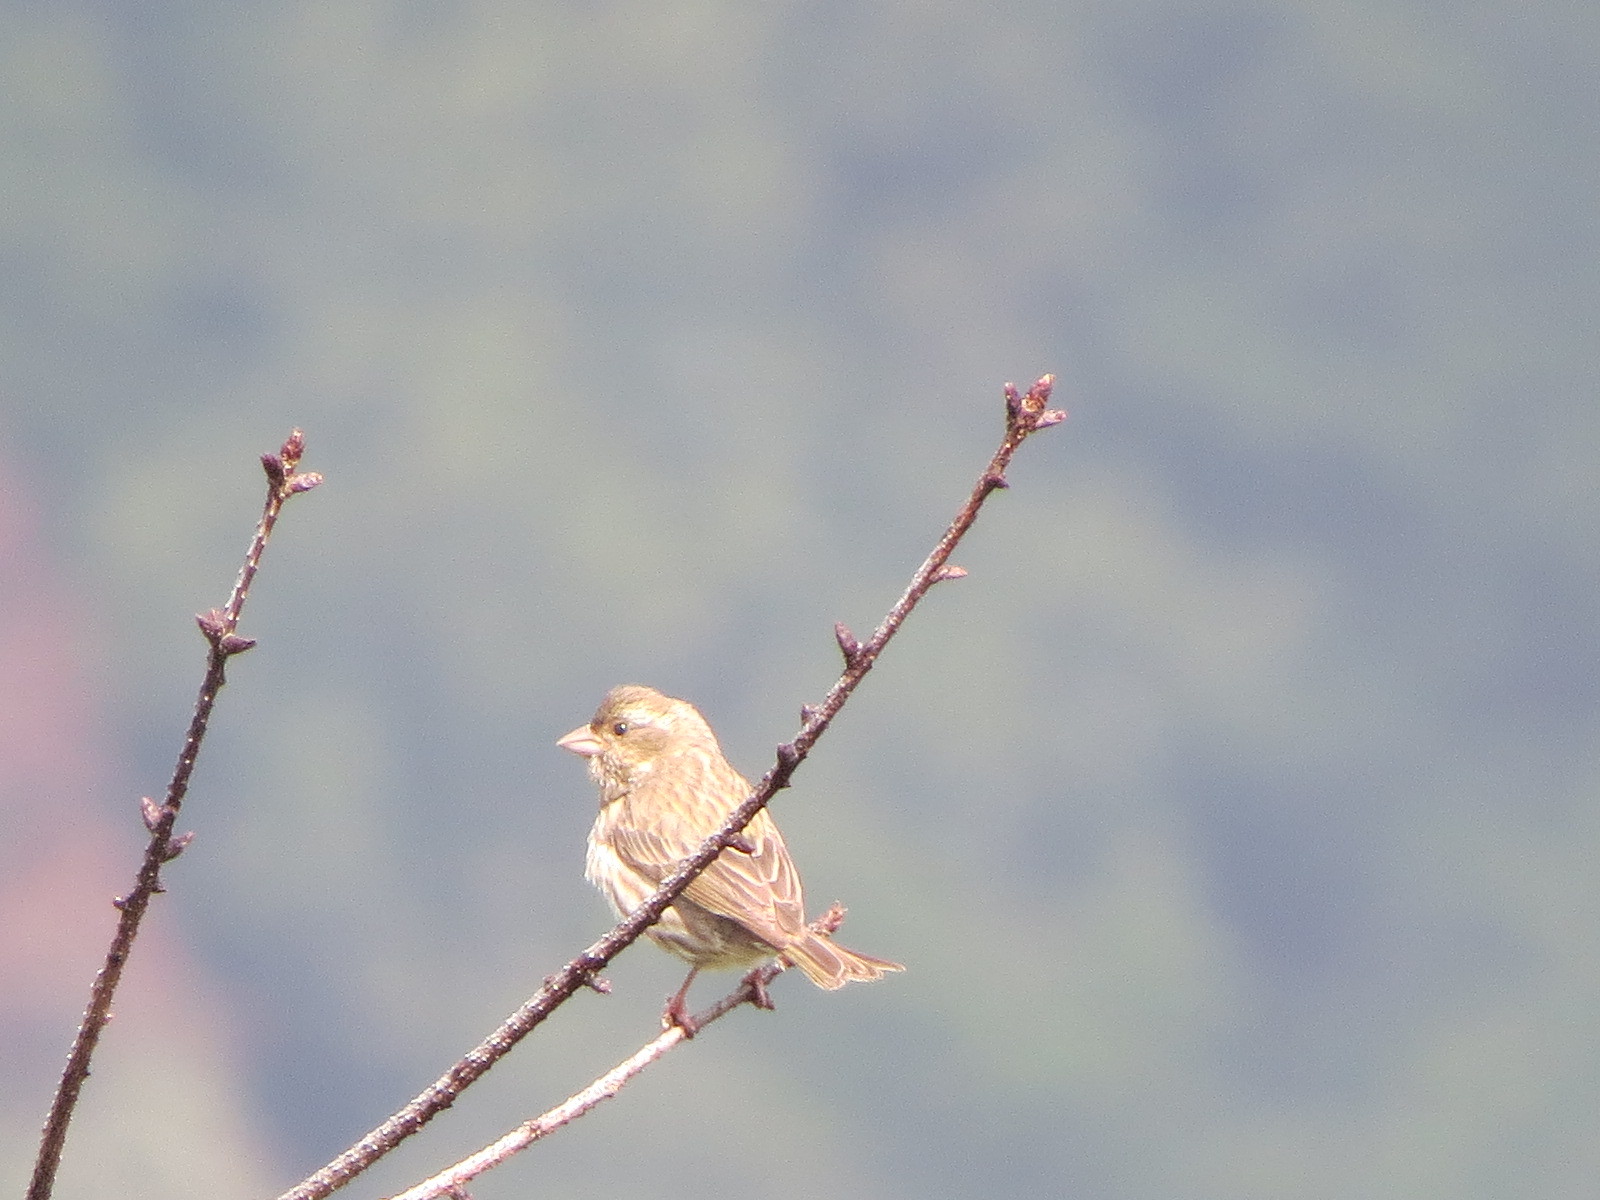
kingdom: Animalia
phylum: Chordata
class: Aves
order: Passeriformes
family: Fringillidae
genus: Haemorhous
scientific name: Haemorhous purpureus
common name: Purple finch
